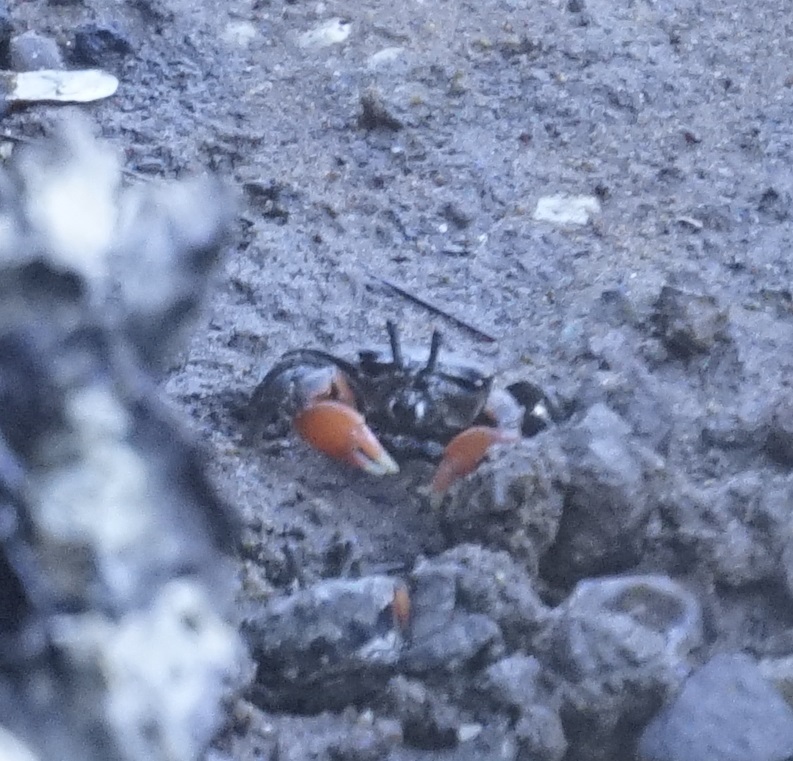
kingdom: Animalia
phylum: Arthropoda
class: Malacostraca
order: Decapoda
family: Heloeciidae
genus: Heloecius
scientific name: Heloecius cordiformis
